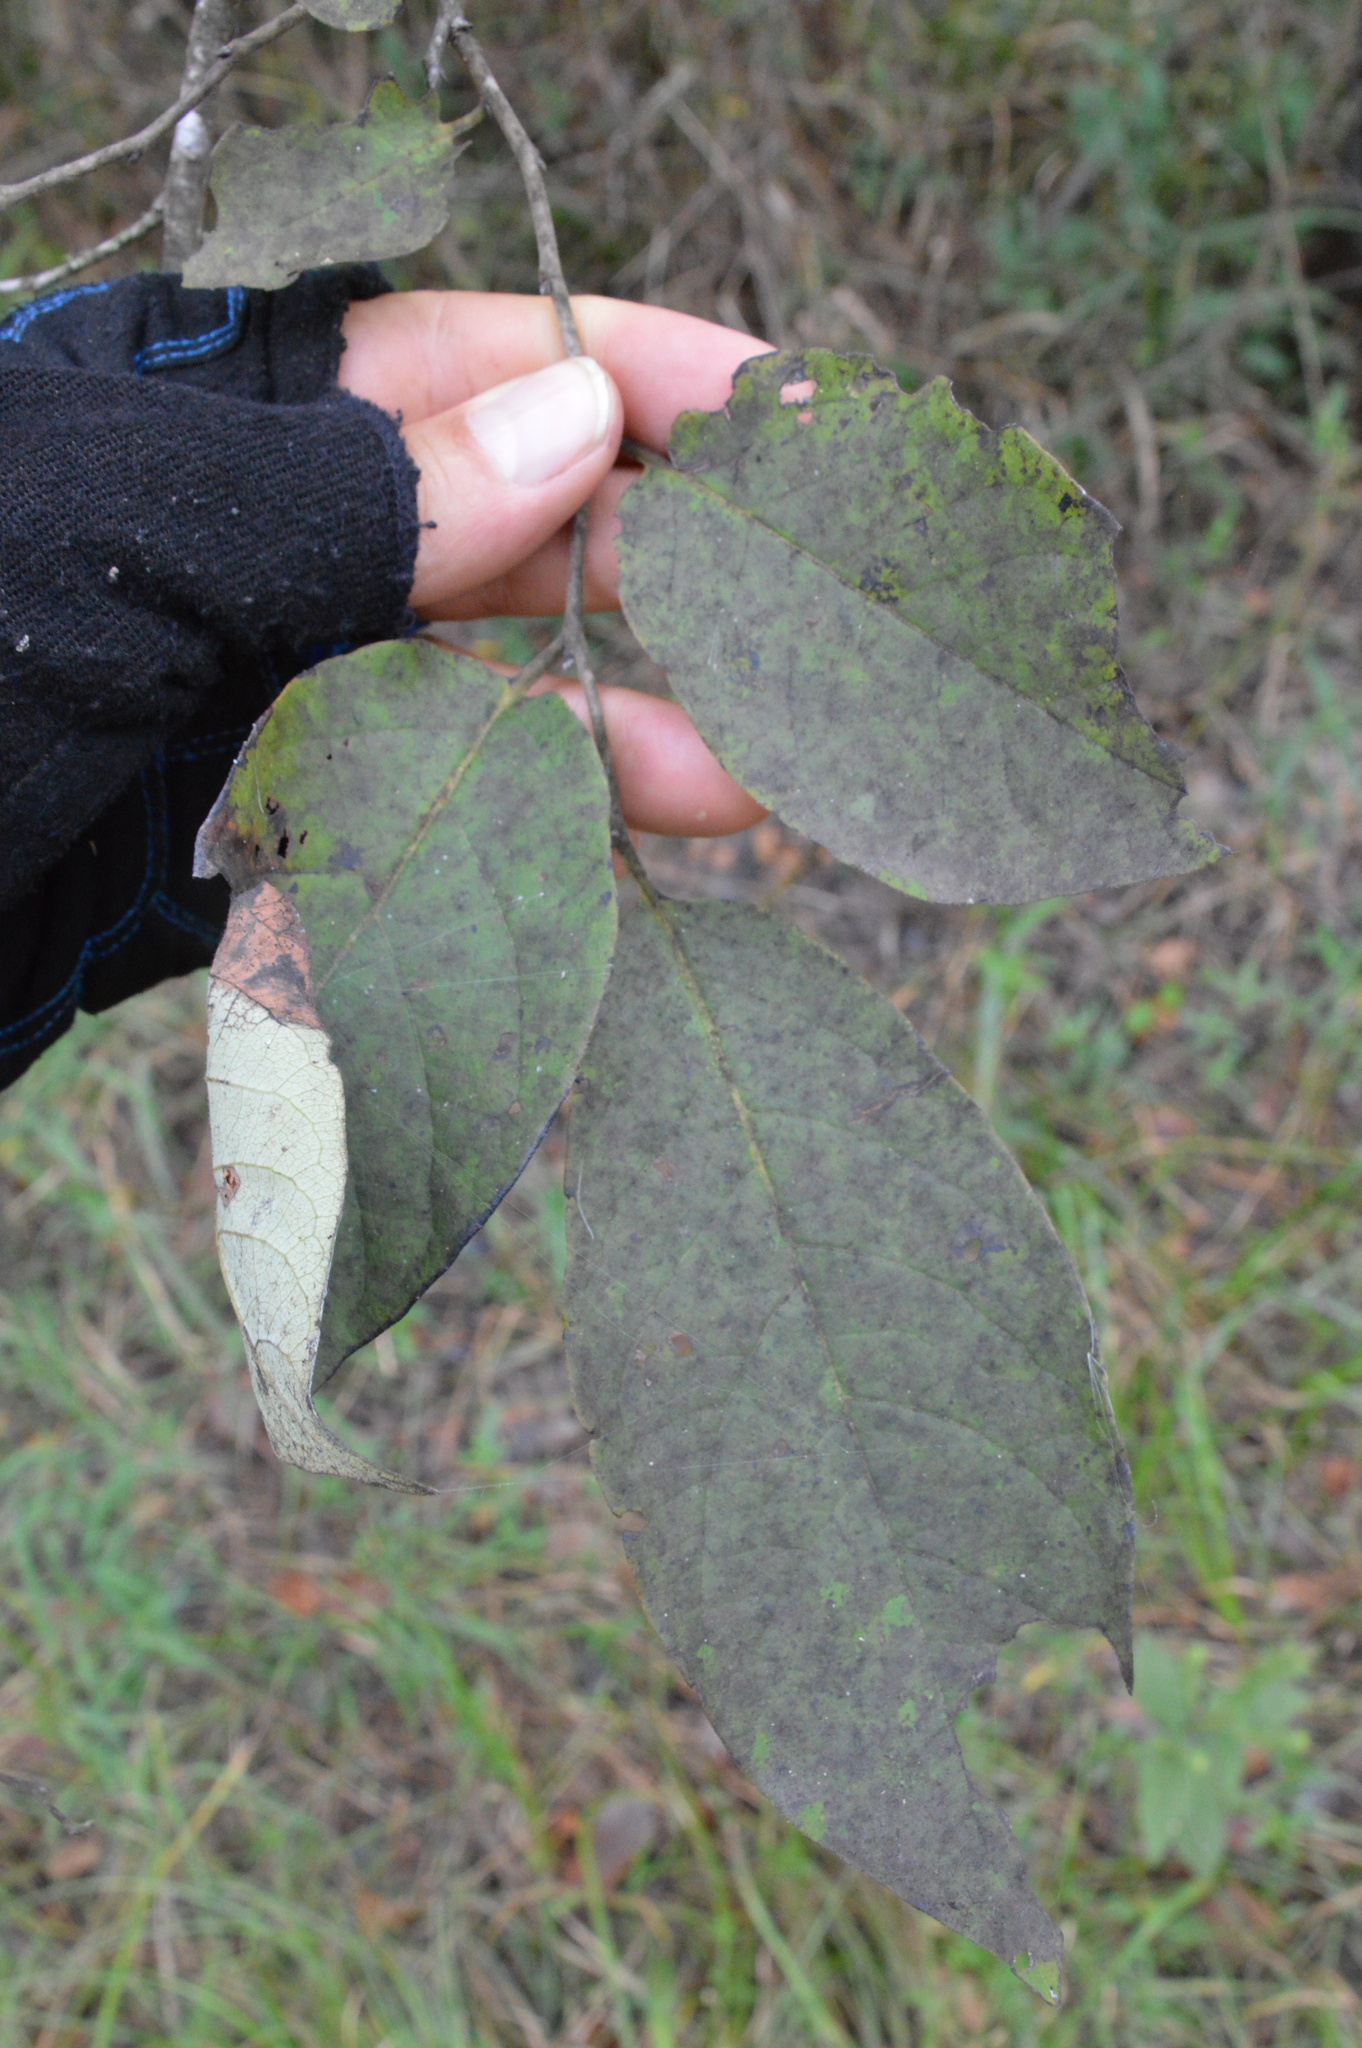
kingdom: Plantae
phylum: Tracheophyta
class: Magnoliopsida
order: Ericales
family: Ebenaceae
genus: Diospyros
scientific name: Diospyros virginiana
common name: Persimmon
